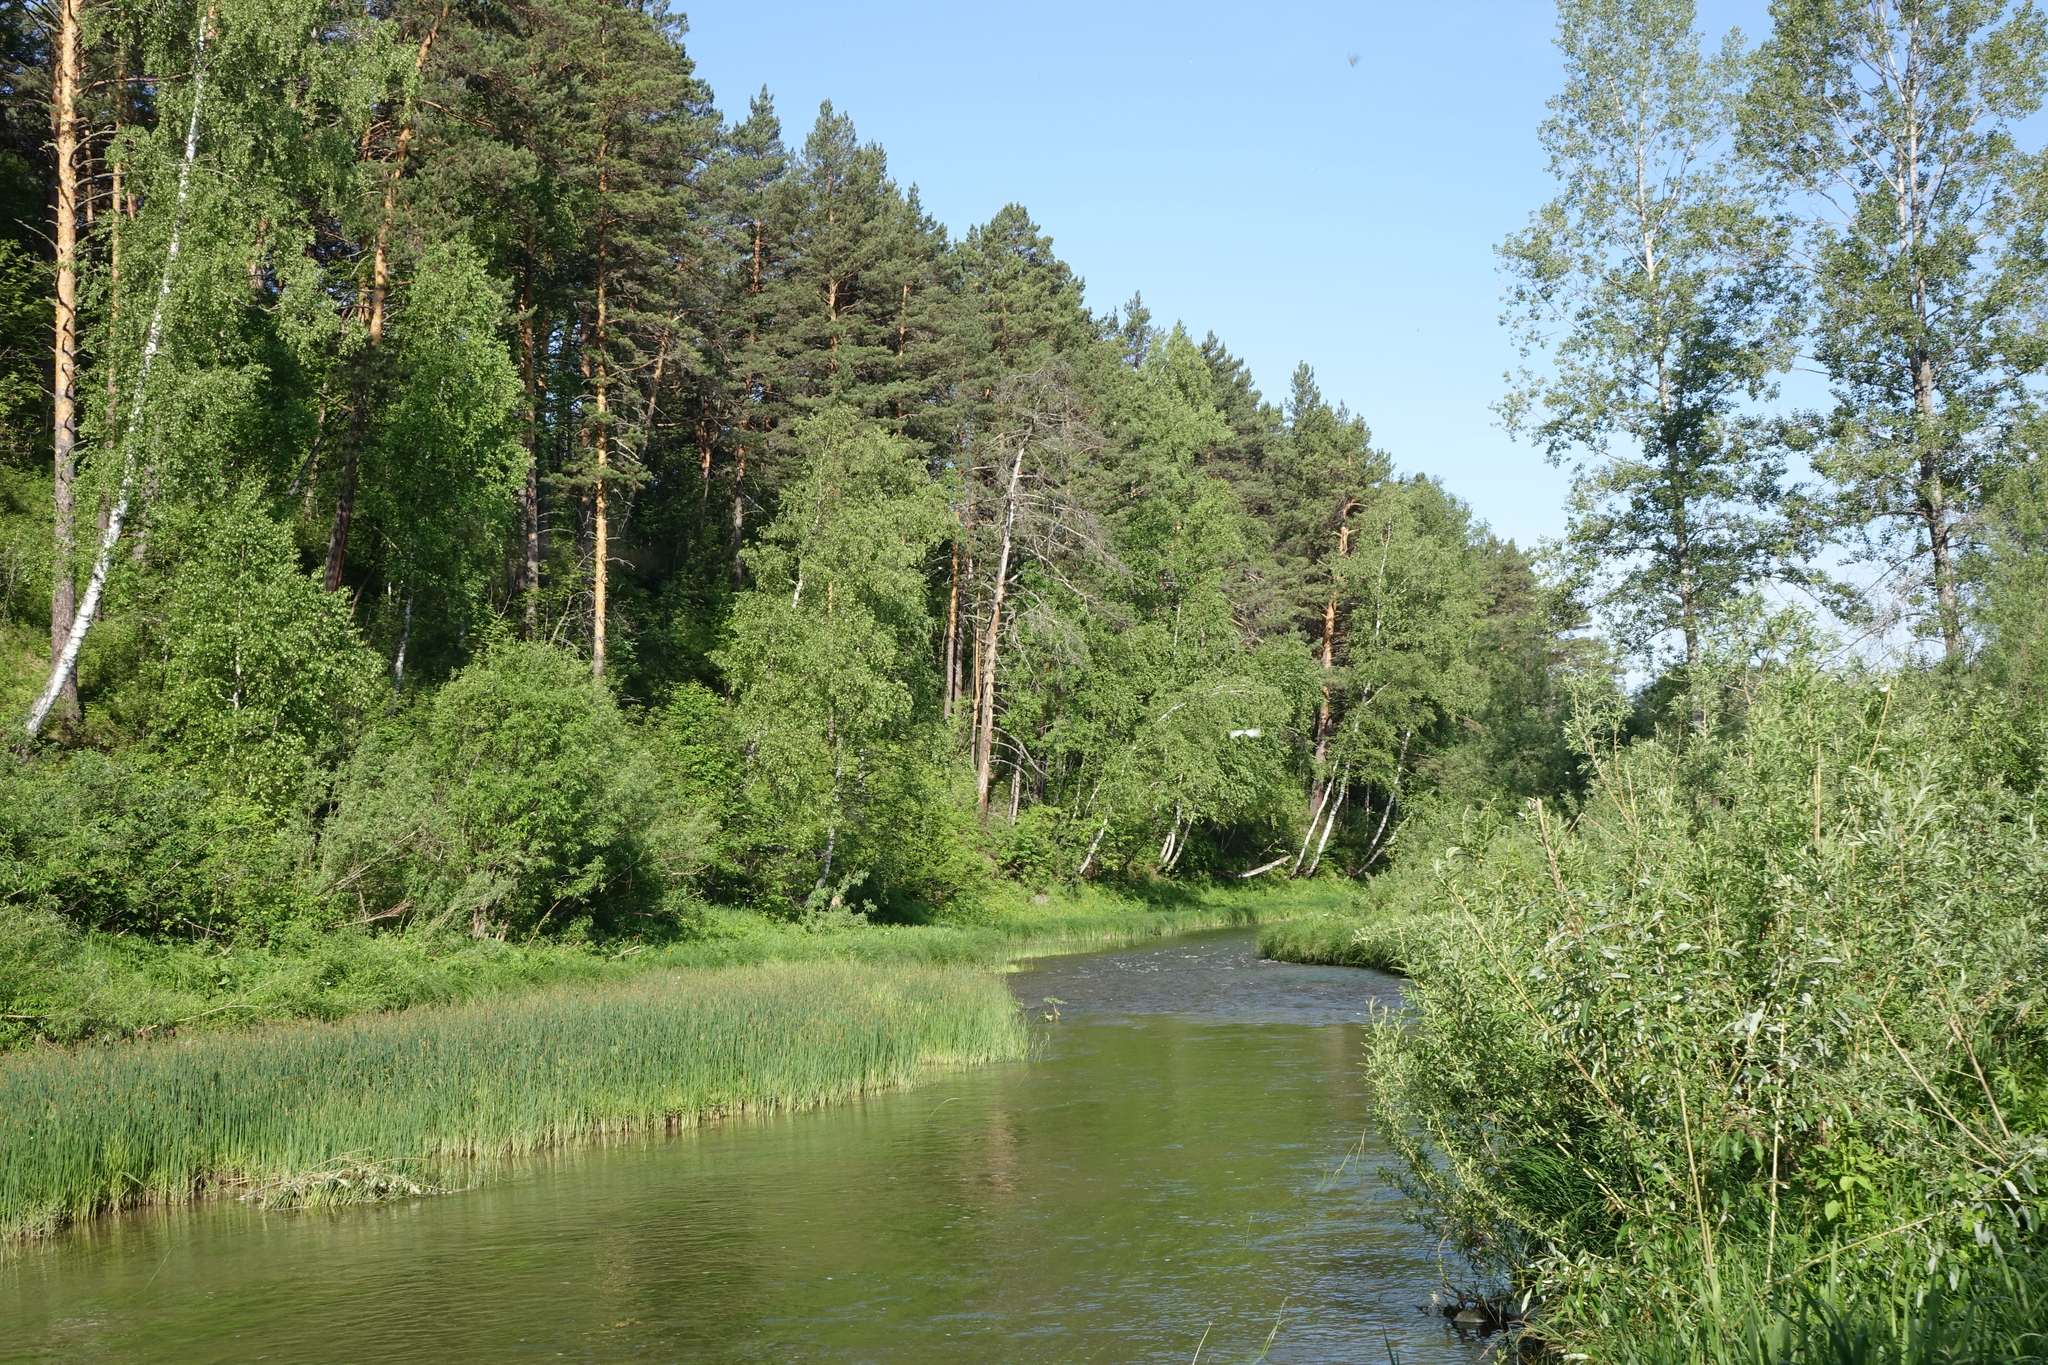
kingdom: Plantae
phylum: Tracheophyta
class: Pinopsida
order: Pinales
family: Pinaceae
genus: Pinus
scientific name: Pinus sylvestris
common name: Scots pine
